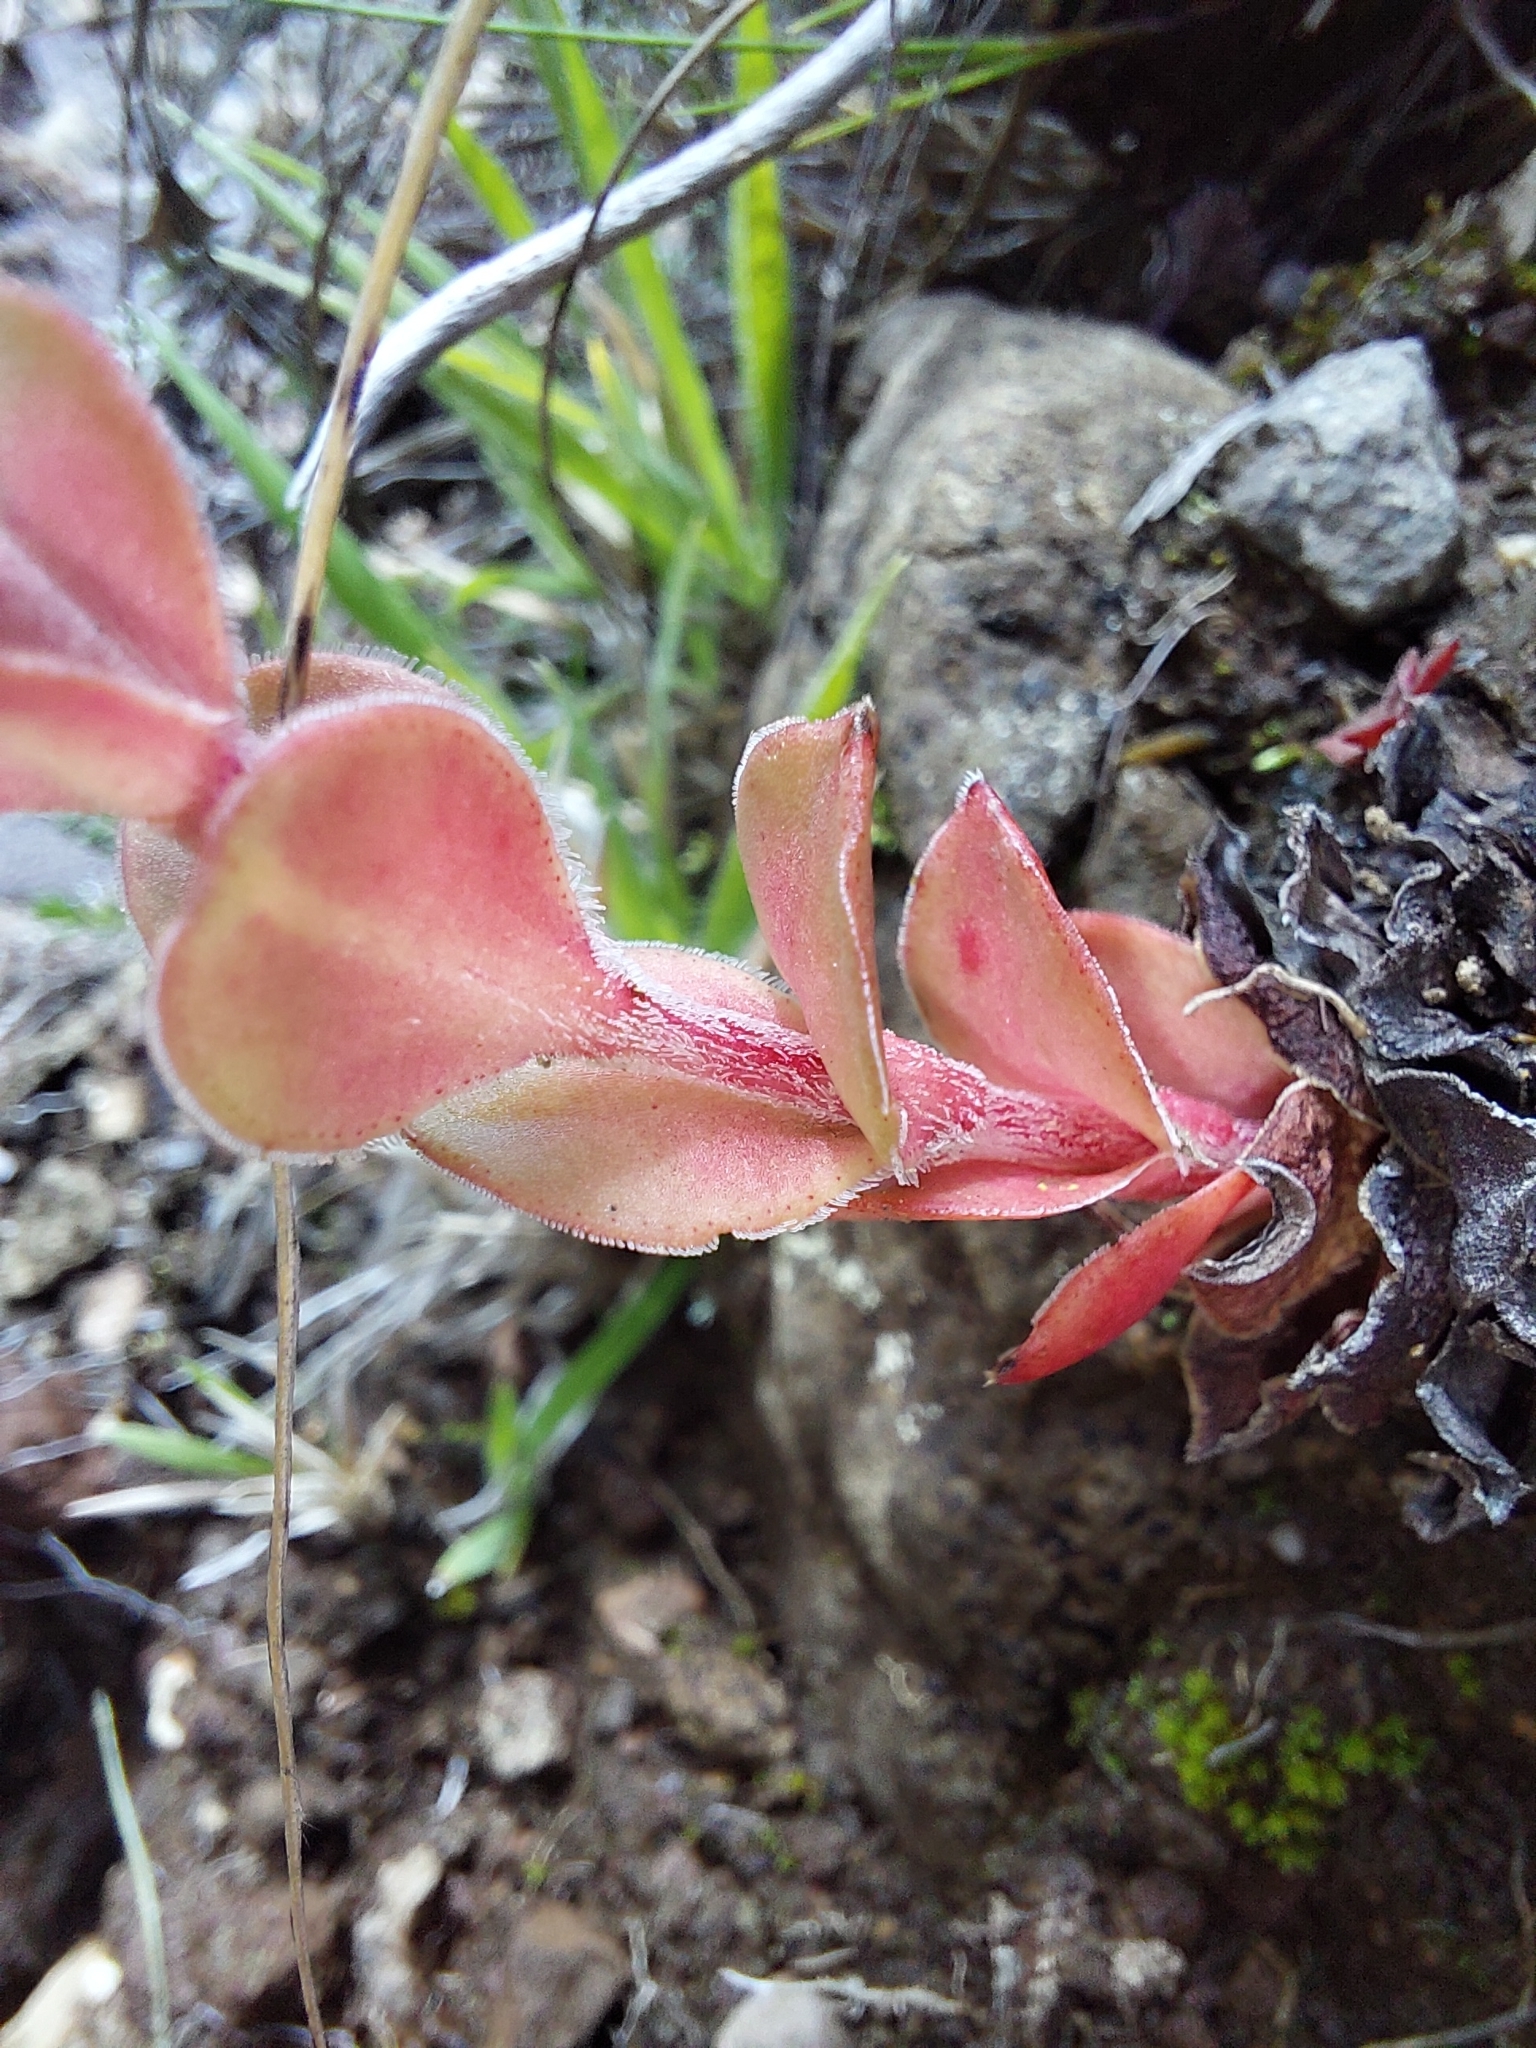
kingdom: Plantae
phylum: Tracheophyta
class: Magnoliopsida
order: Saxifragales
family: Crassulaceae
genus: Crassula
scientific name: Crassula natalensis
